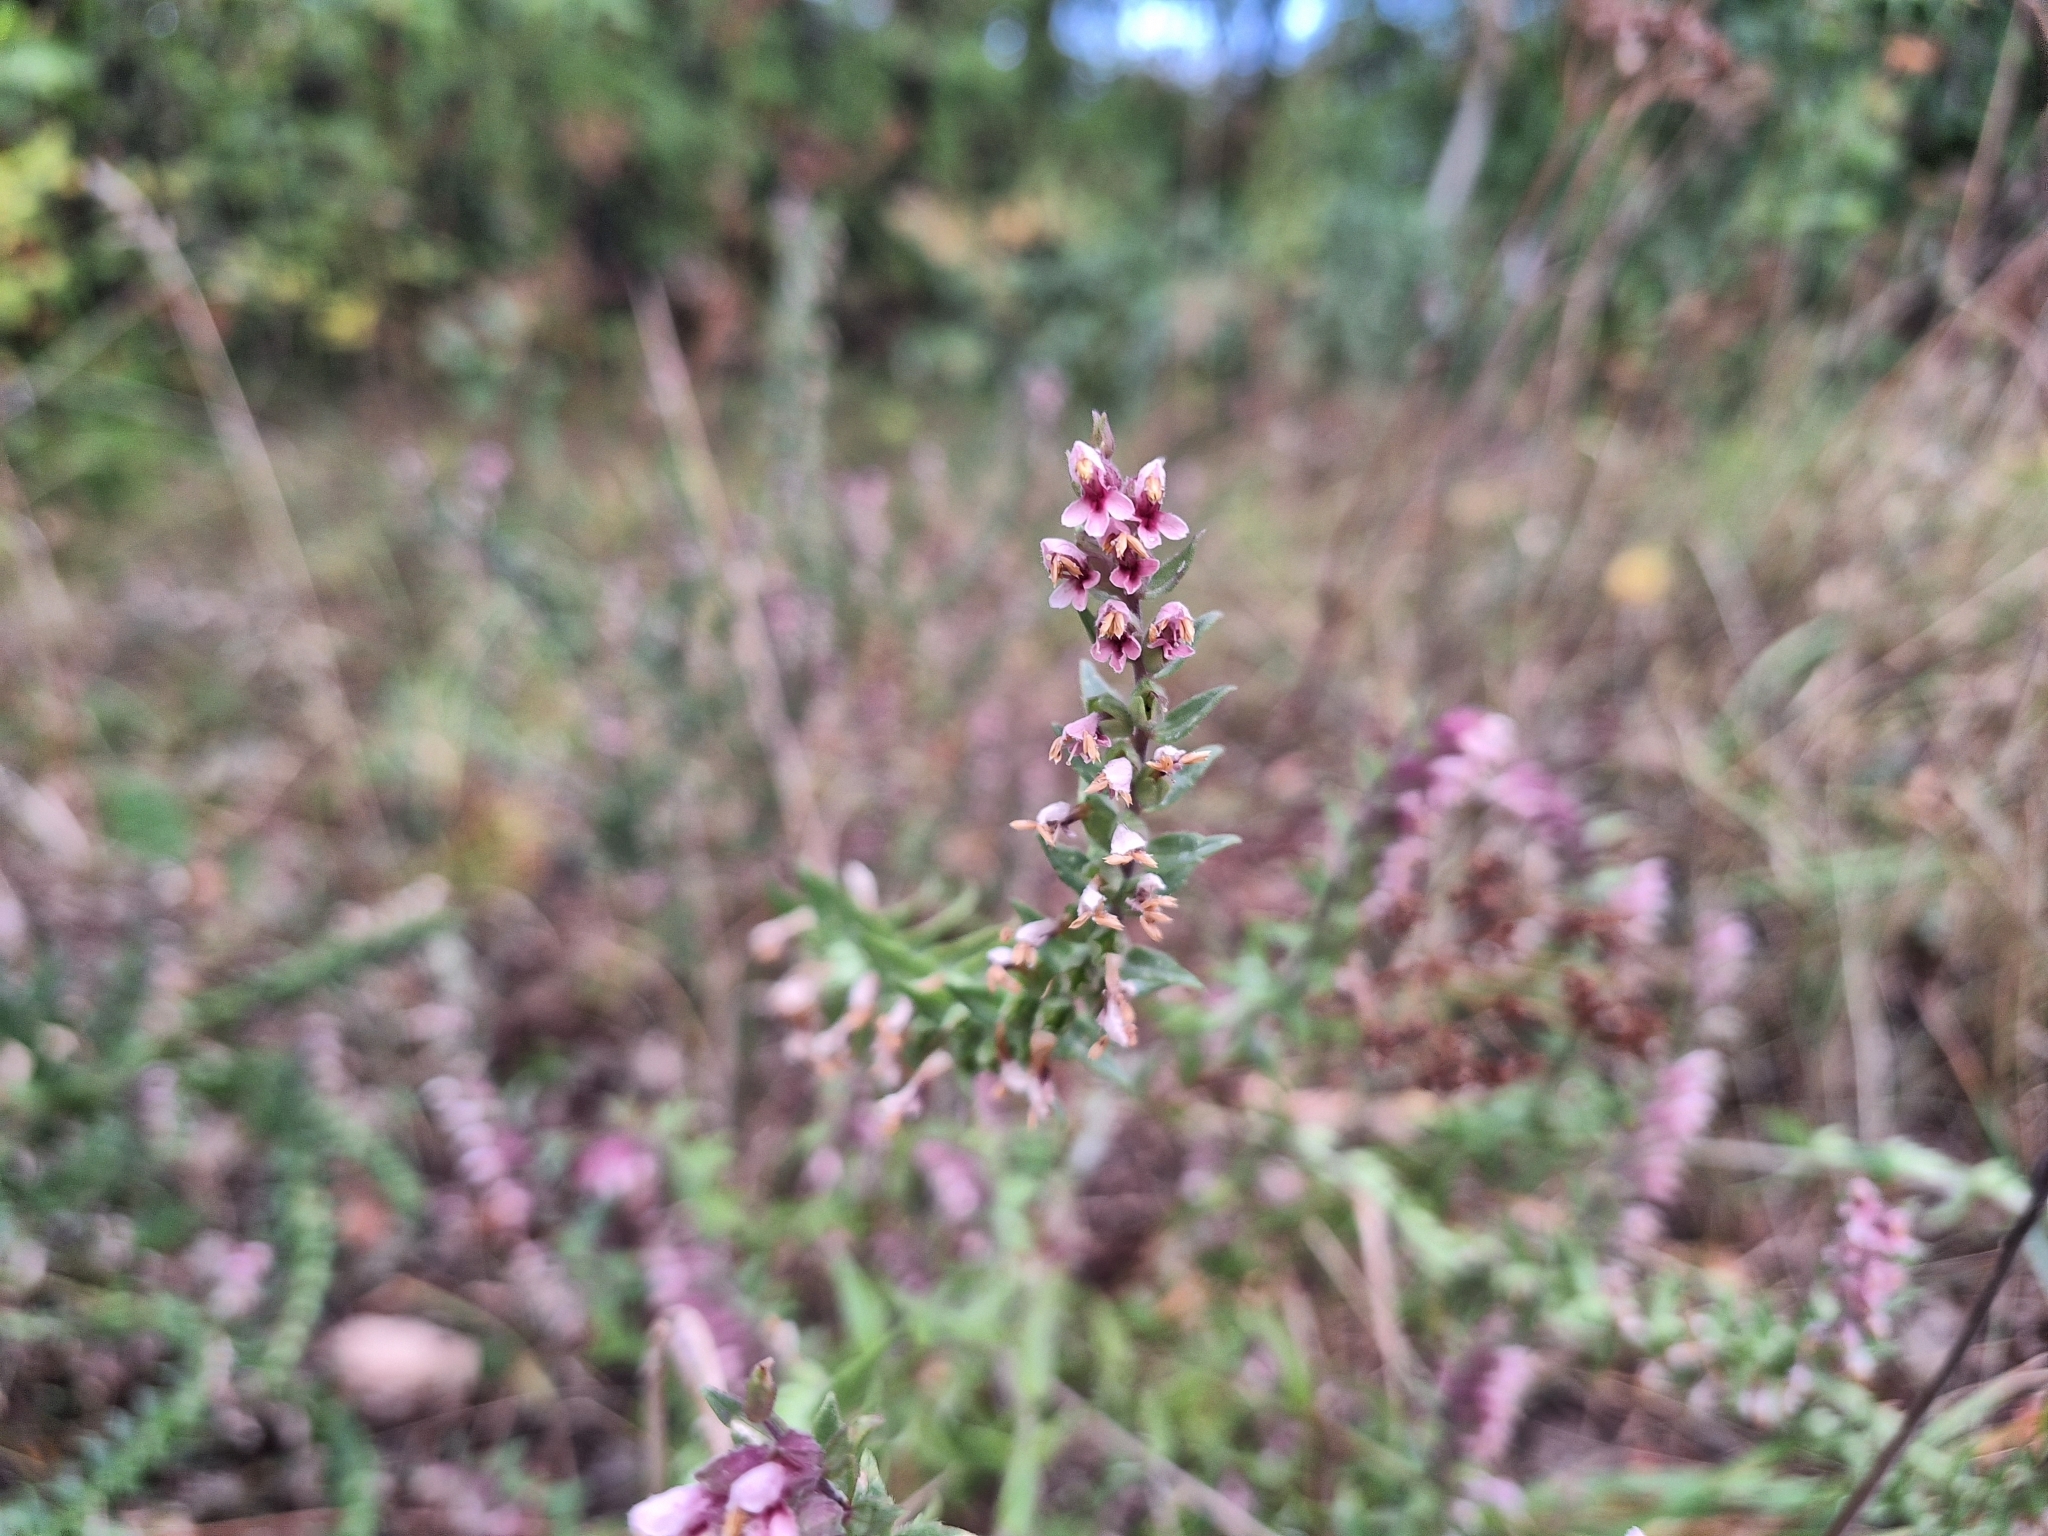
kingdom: Plantae
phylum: Tracheophyta
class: Magnoliopsida
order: Lamiales
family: Orobanchaceae
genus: Odontites
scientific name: Odontites vulgaris
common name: Broomrape
